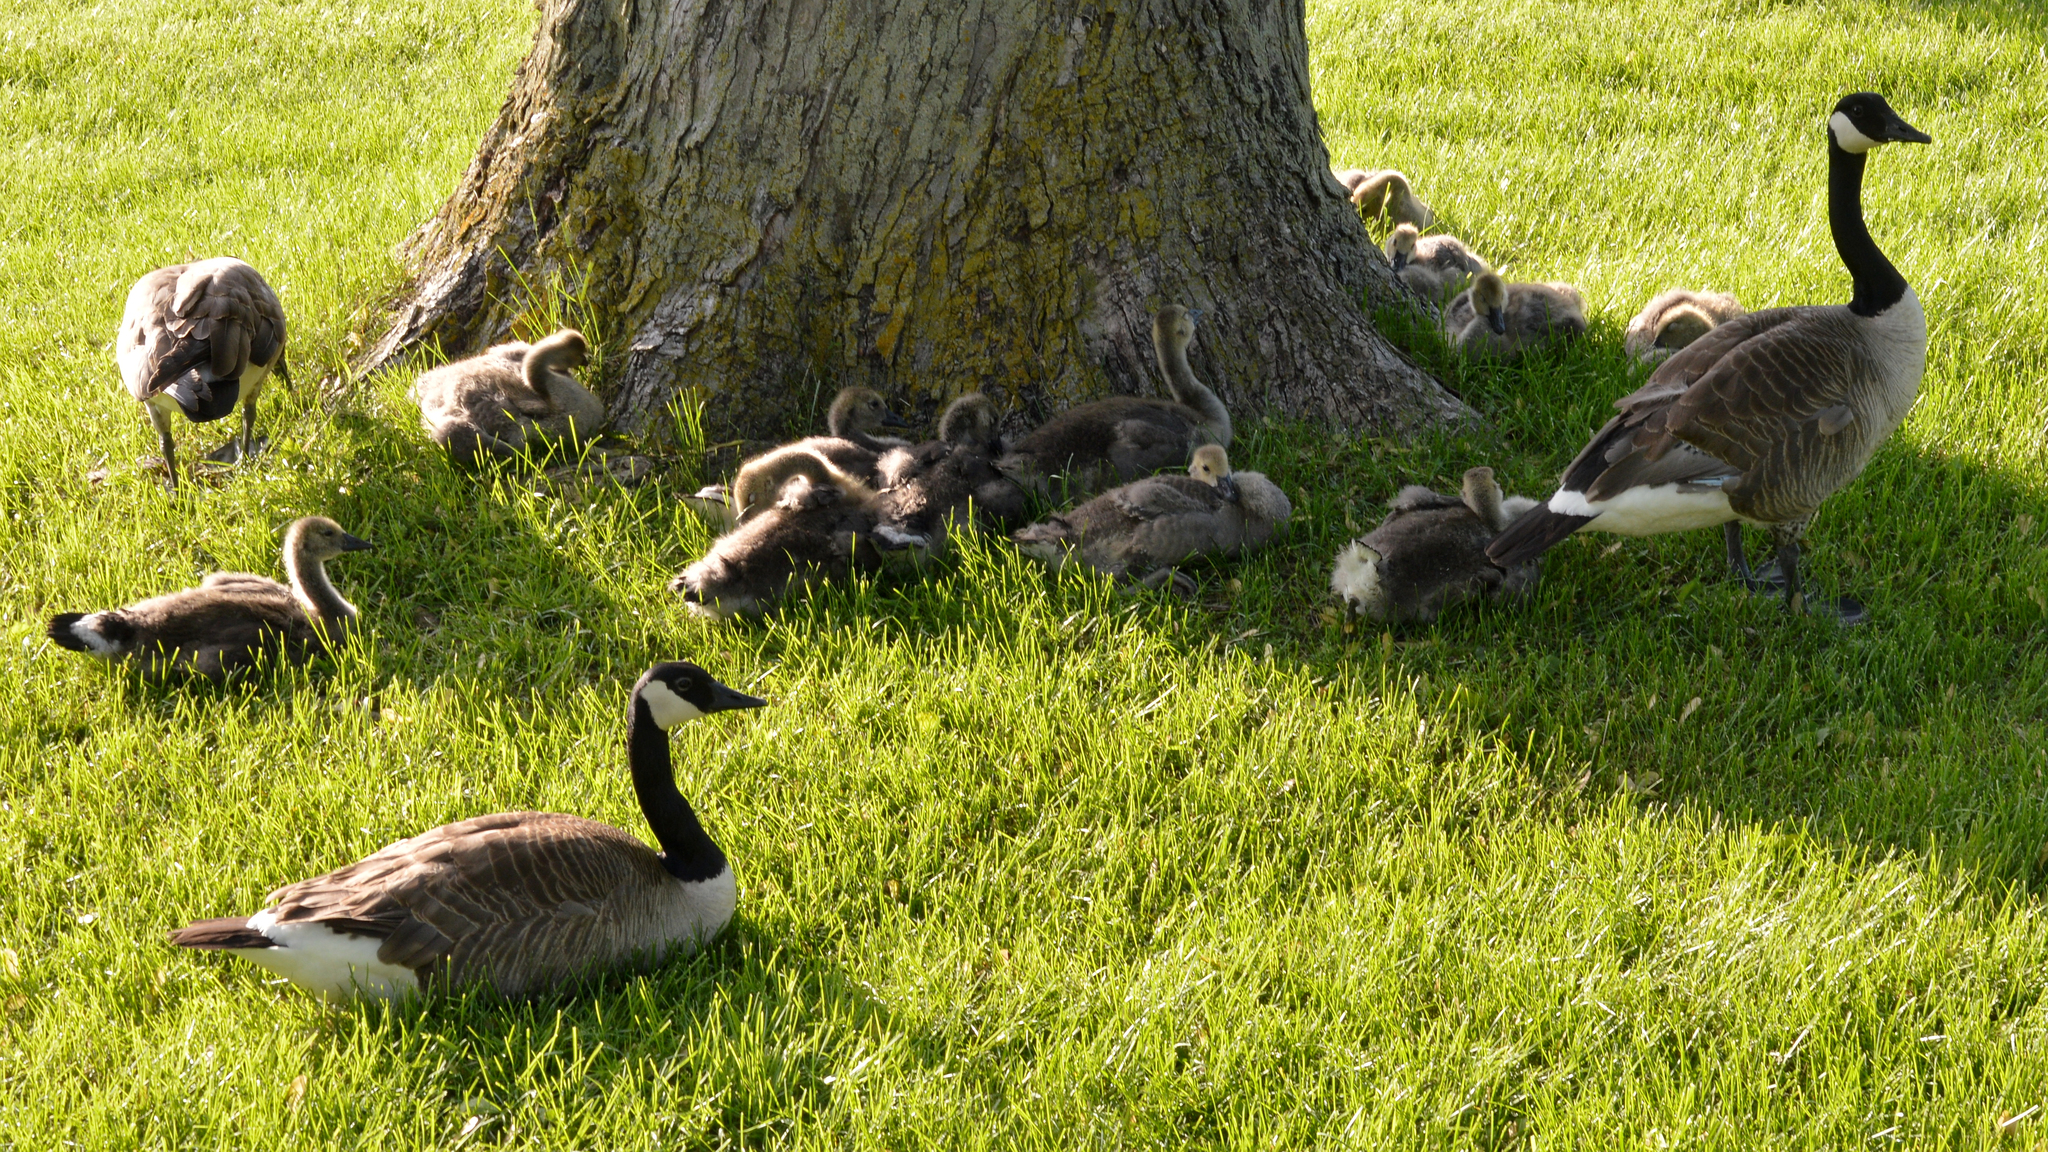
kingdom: Animalia
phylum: Chordata
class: Aves
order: Anseriformes
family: Anatidae
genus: Branta
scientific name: Branta canadensis
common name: Canada goose
